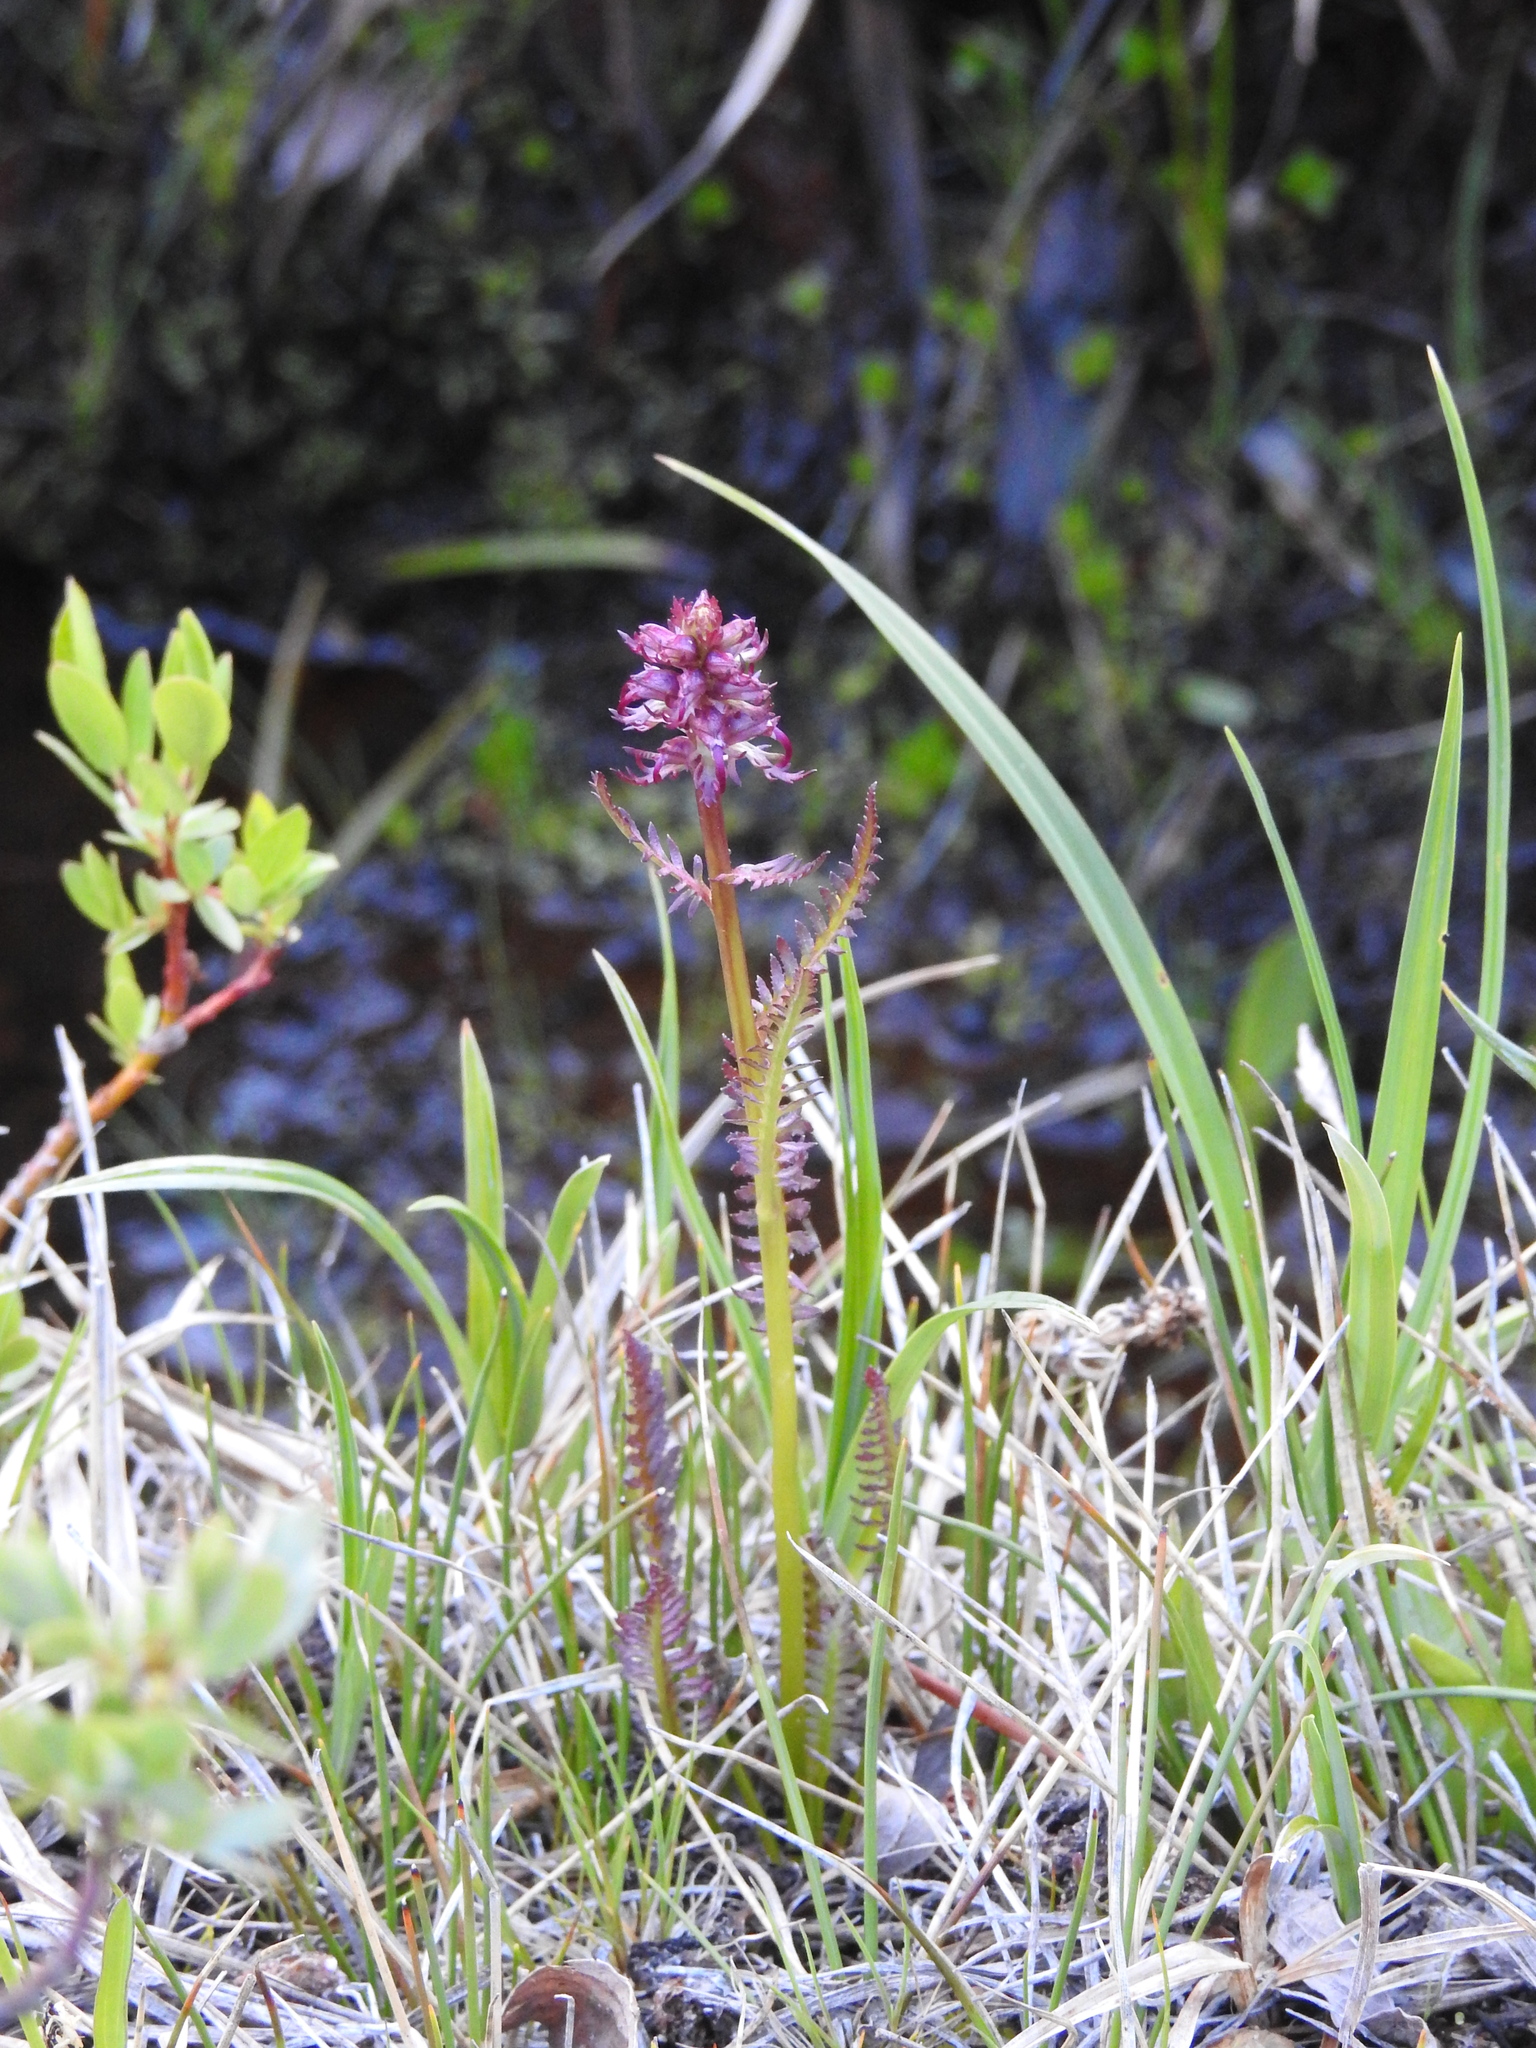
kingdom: Plantae
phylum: Tracheophyta
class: Magnoliopsida
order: Lamiales
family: Orobanchaceae
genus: Pedicularis
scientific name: Pedicularis groenlandica
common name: Elephant's-head
